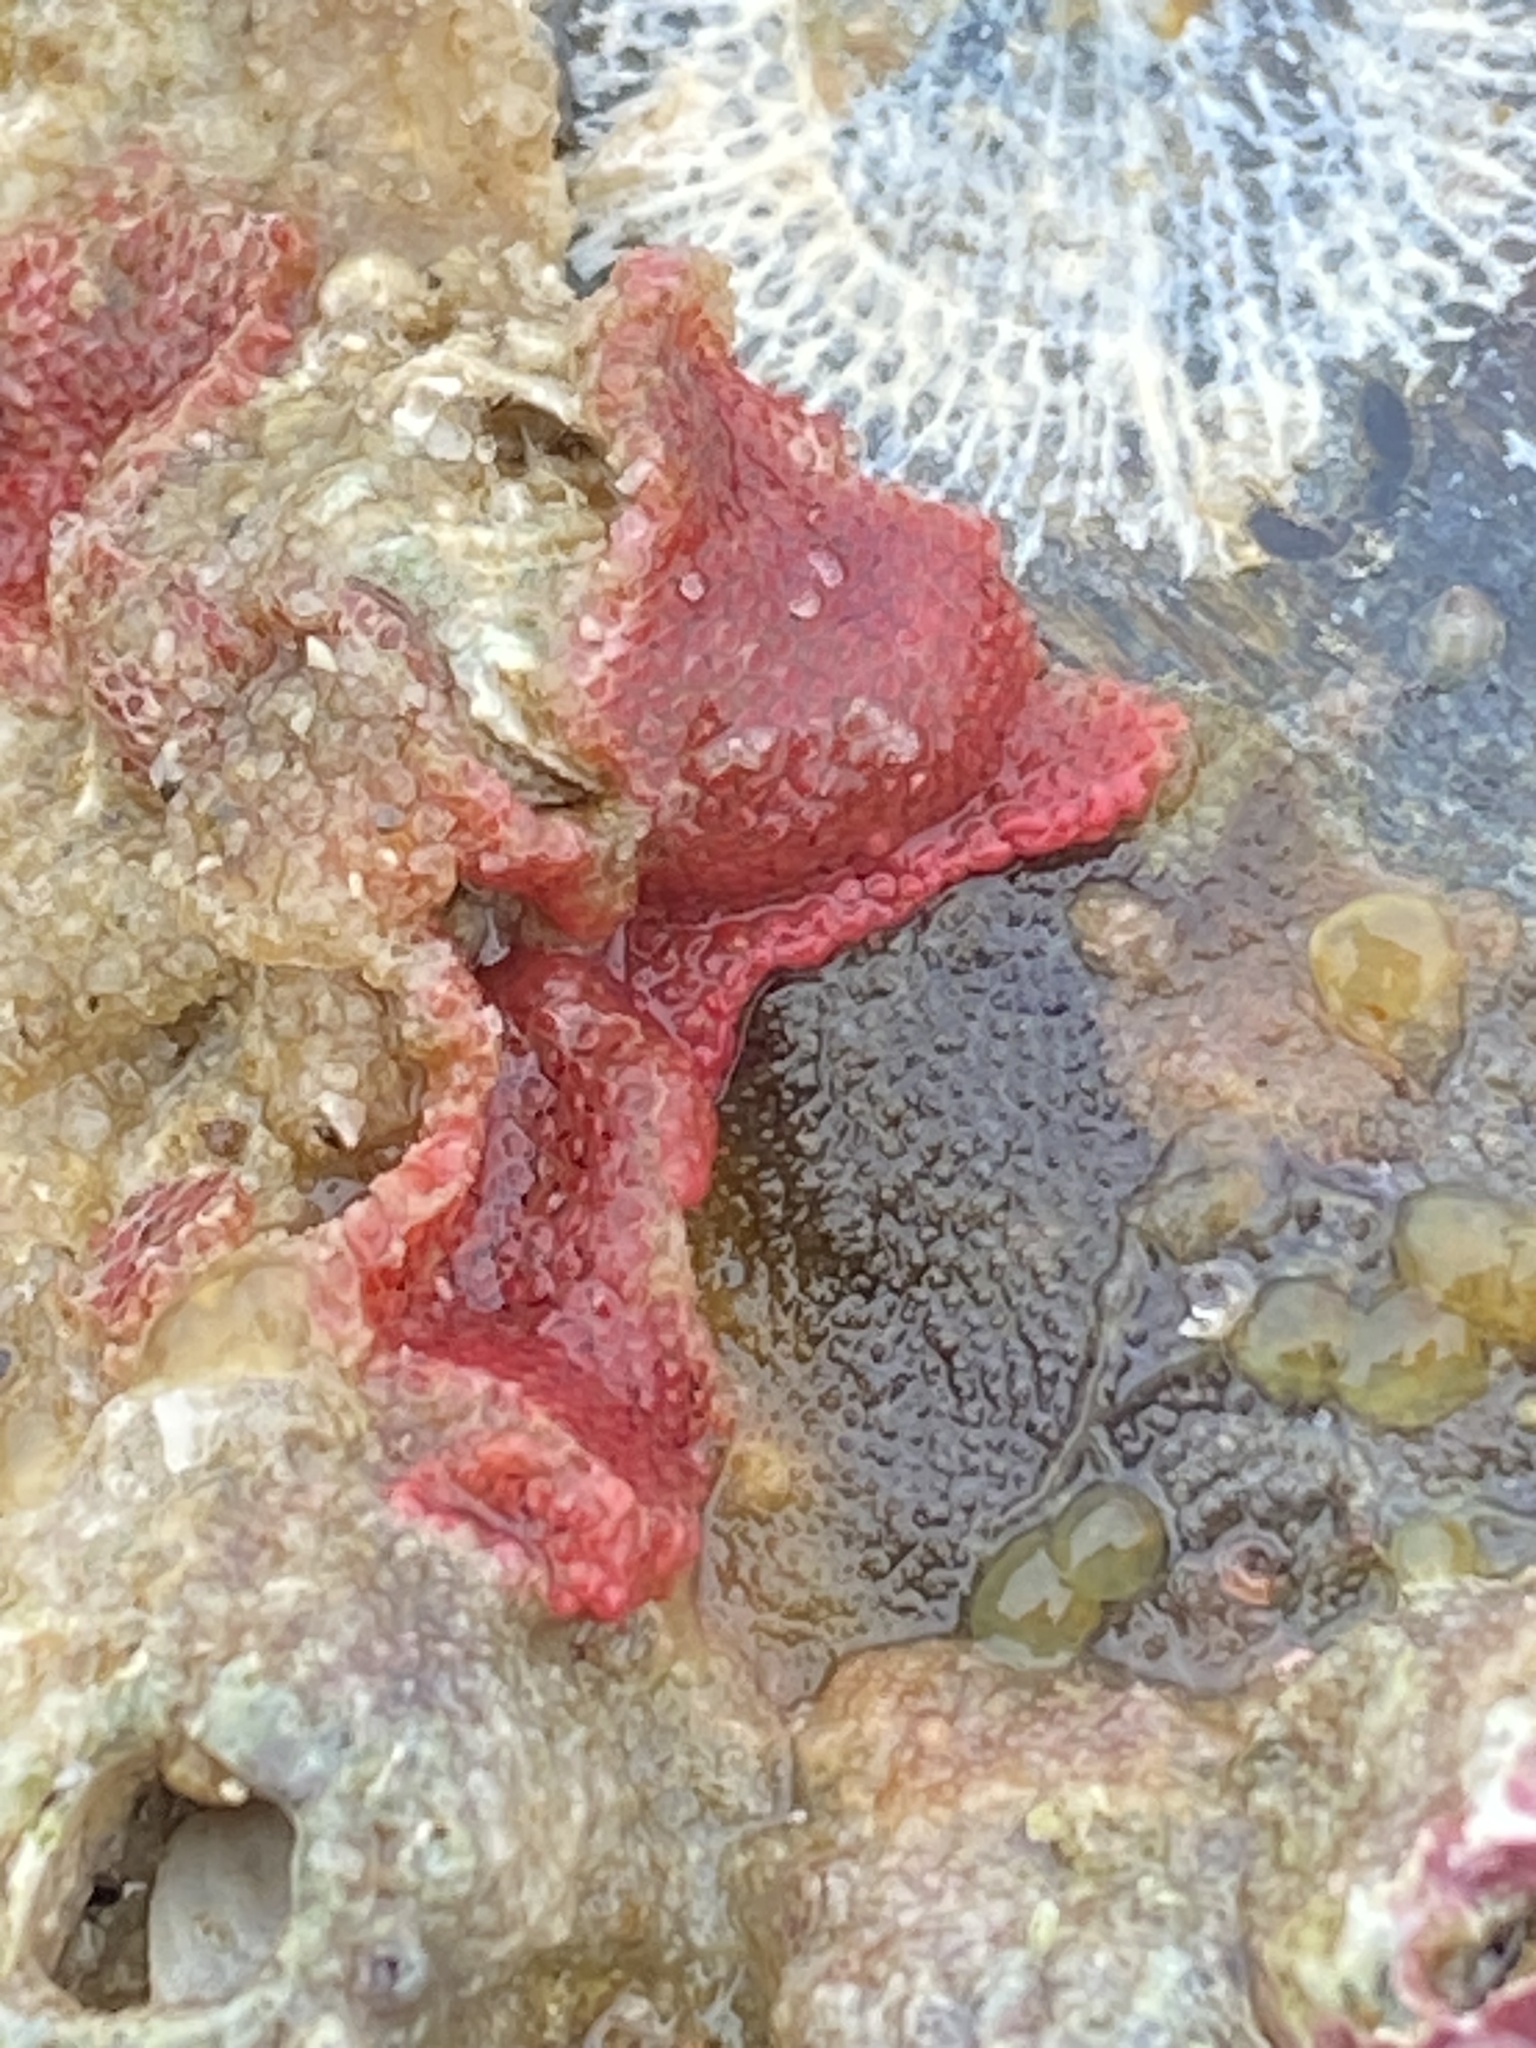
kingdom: Animalia
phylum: Bryozoa
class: Gymnolaemata
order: Cheilostomatida
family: Eurystomellidae
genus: Integripelta
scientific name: Integripelta bilabiata
